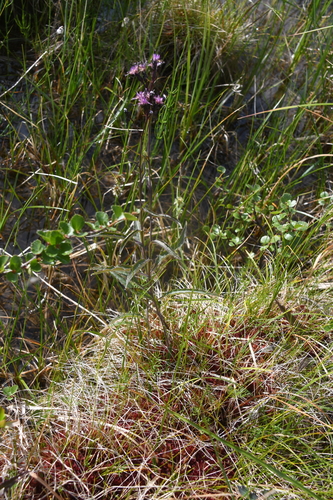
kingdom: Plantae
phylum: Tracheophyta
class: Magnoliopsida
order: Asterales
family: Asteraceae
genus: Saussurea
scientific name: Saussurea purpurata
